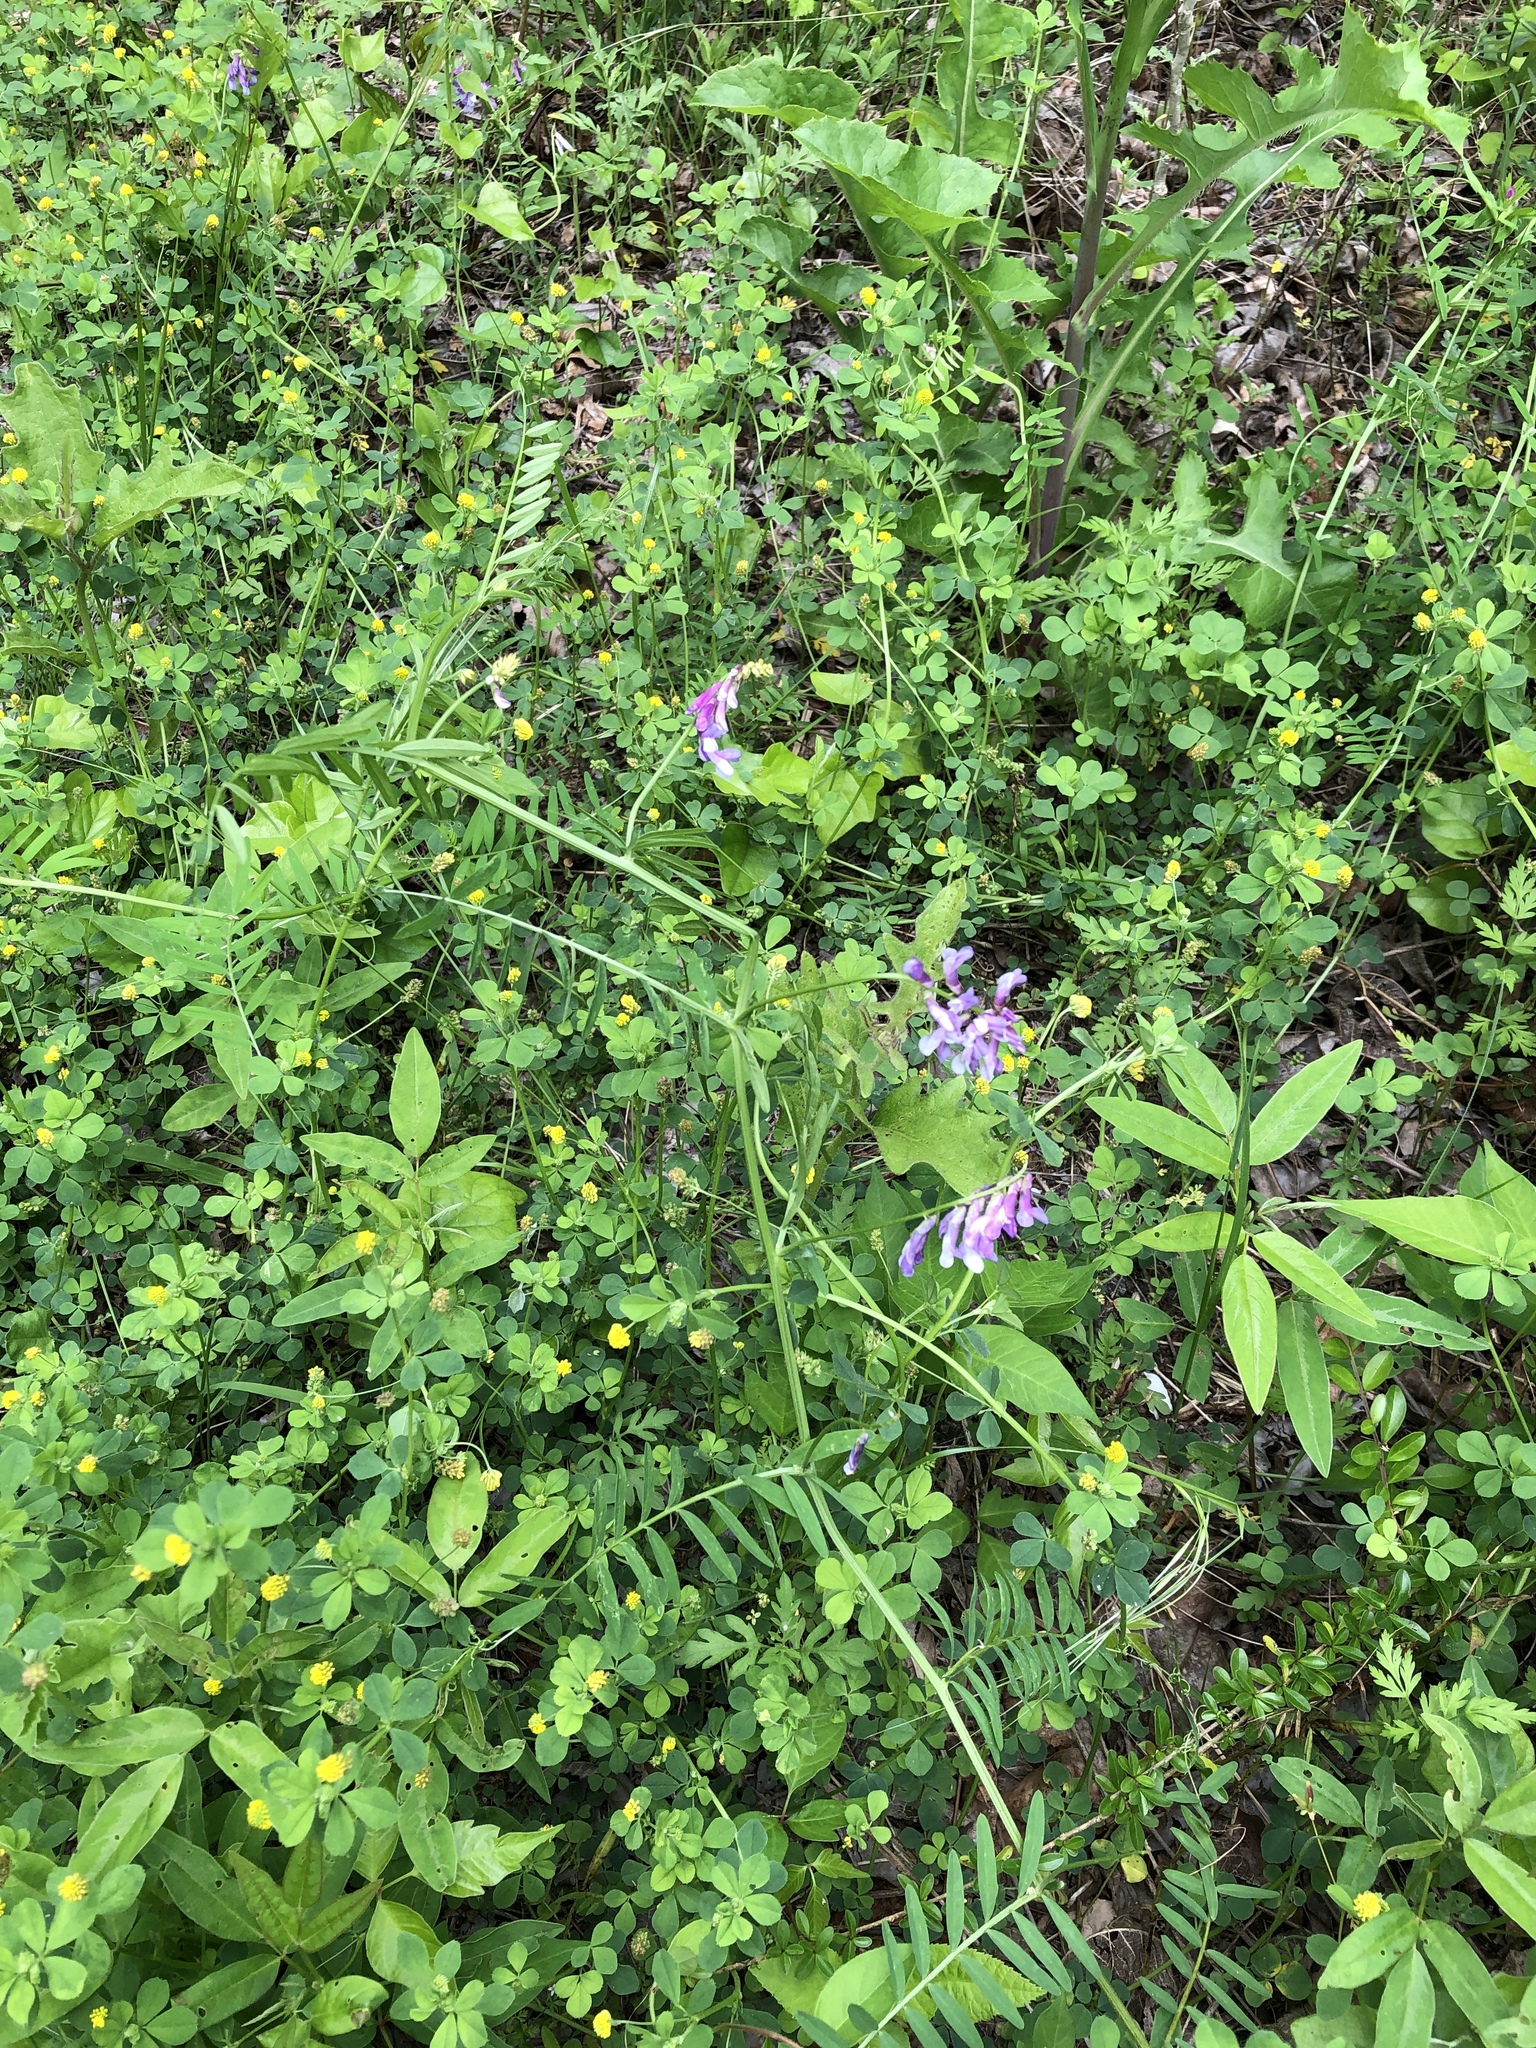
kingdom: Plantae
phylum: Tracheophyta
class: Magnoliopsida
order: Fabales
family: Fabaceae
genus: Vicia
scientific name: Vicia villosa
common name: Fodder vetch
